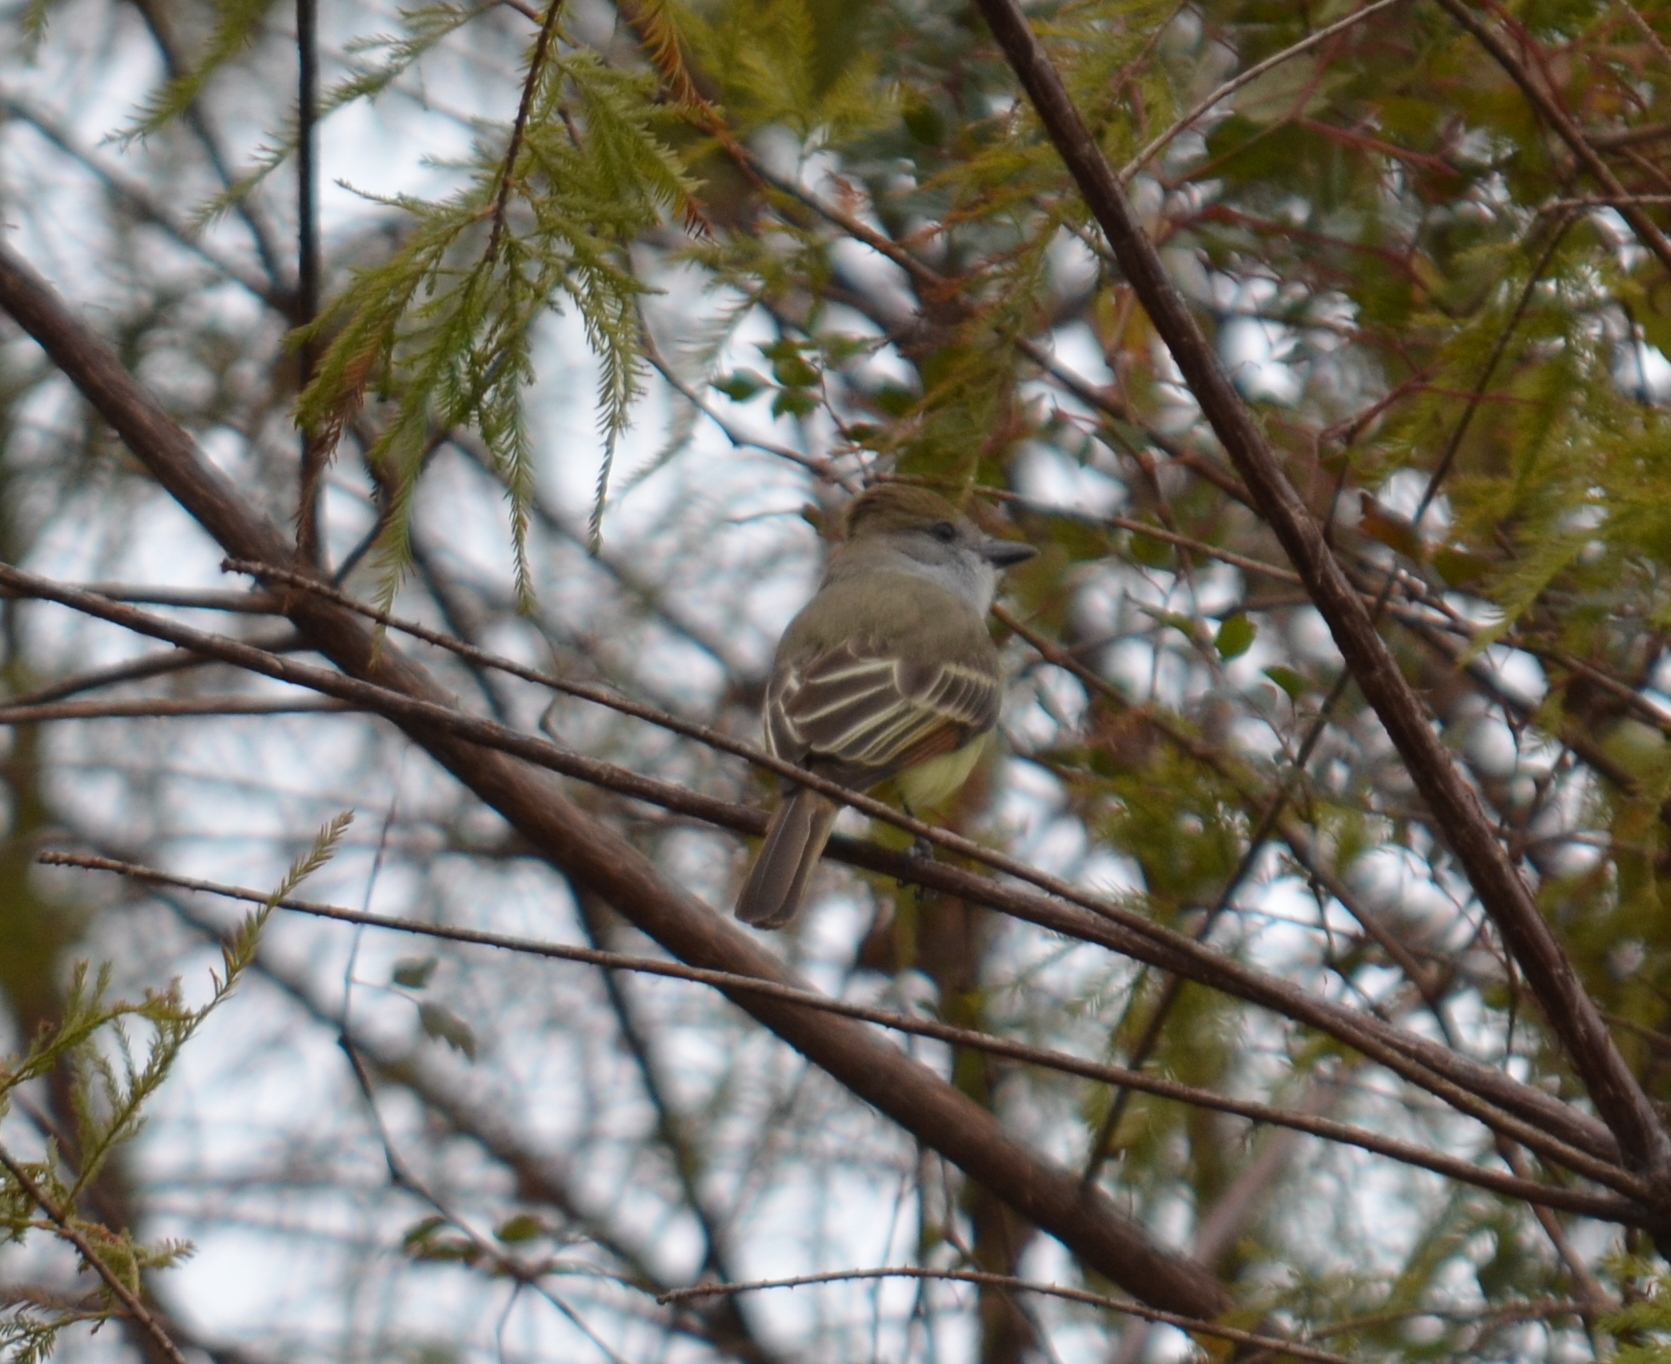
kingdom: Animalia
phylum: Chordata
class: Aves
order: Passeriformes
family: Tyrannidae
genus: Myiarchus
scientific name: Myiarchus tyrannulus
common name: Brown-crested flycatcher
